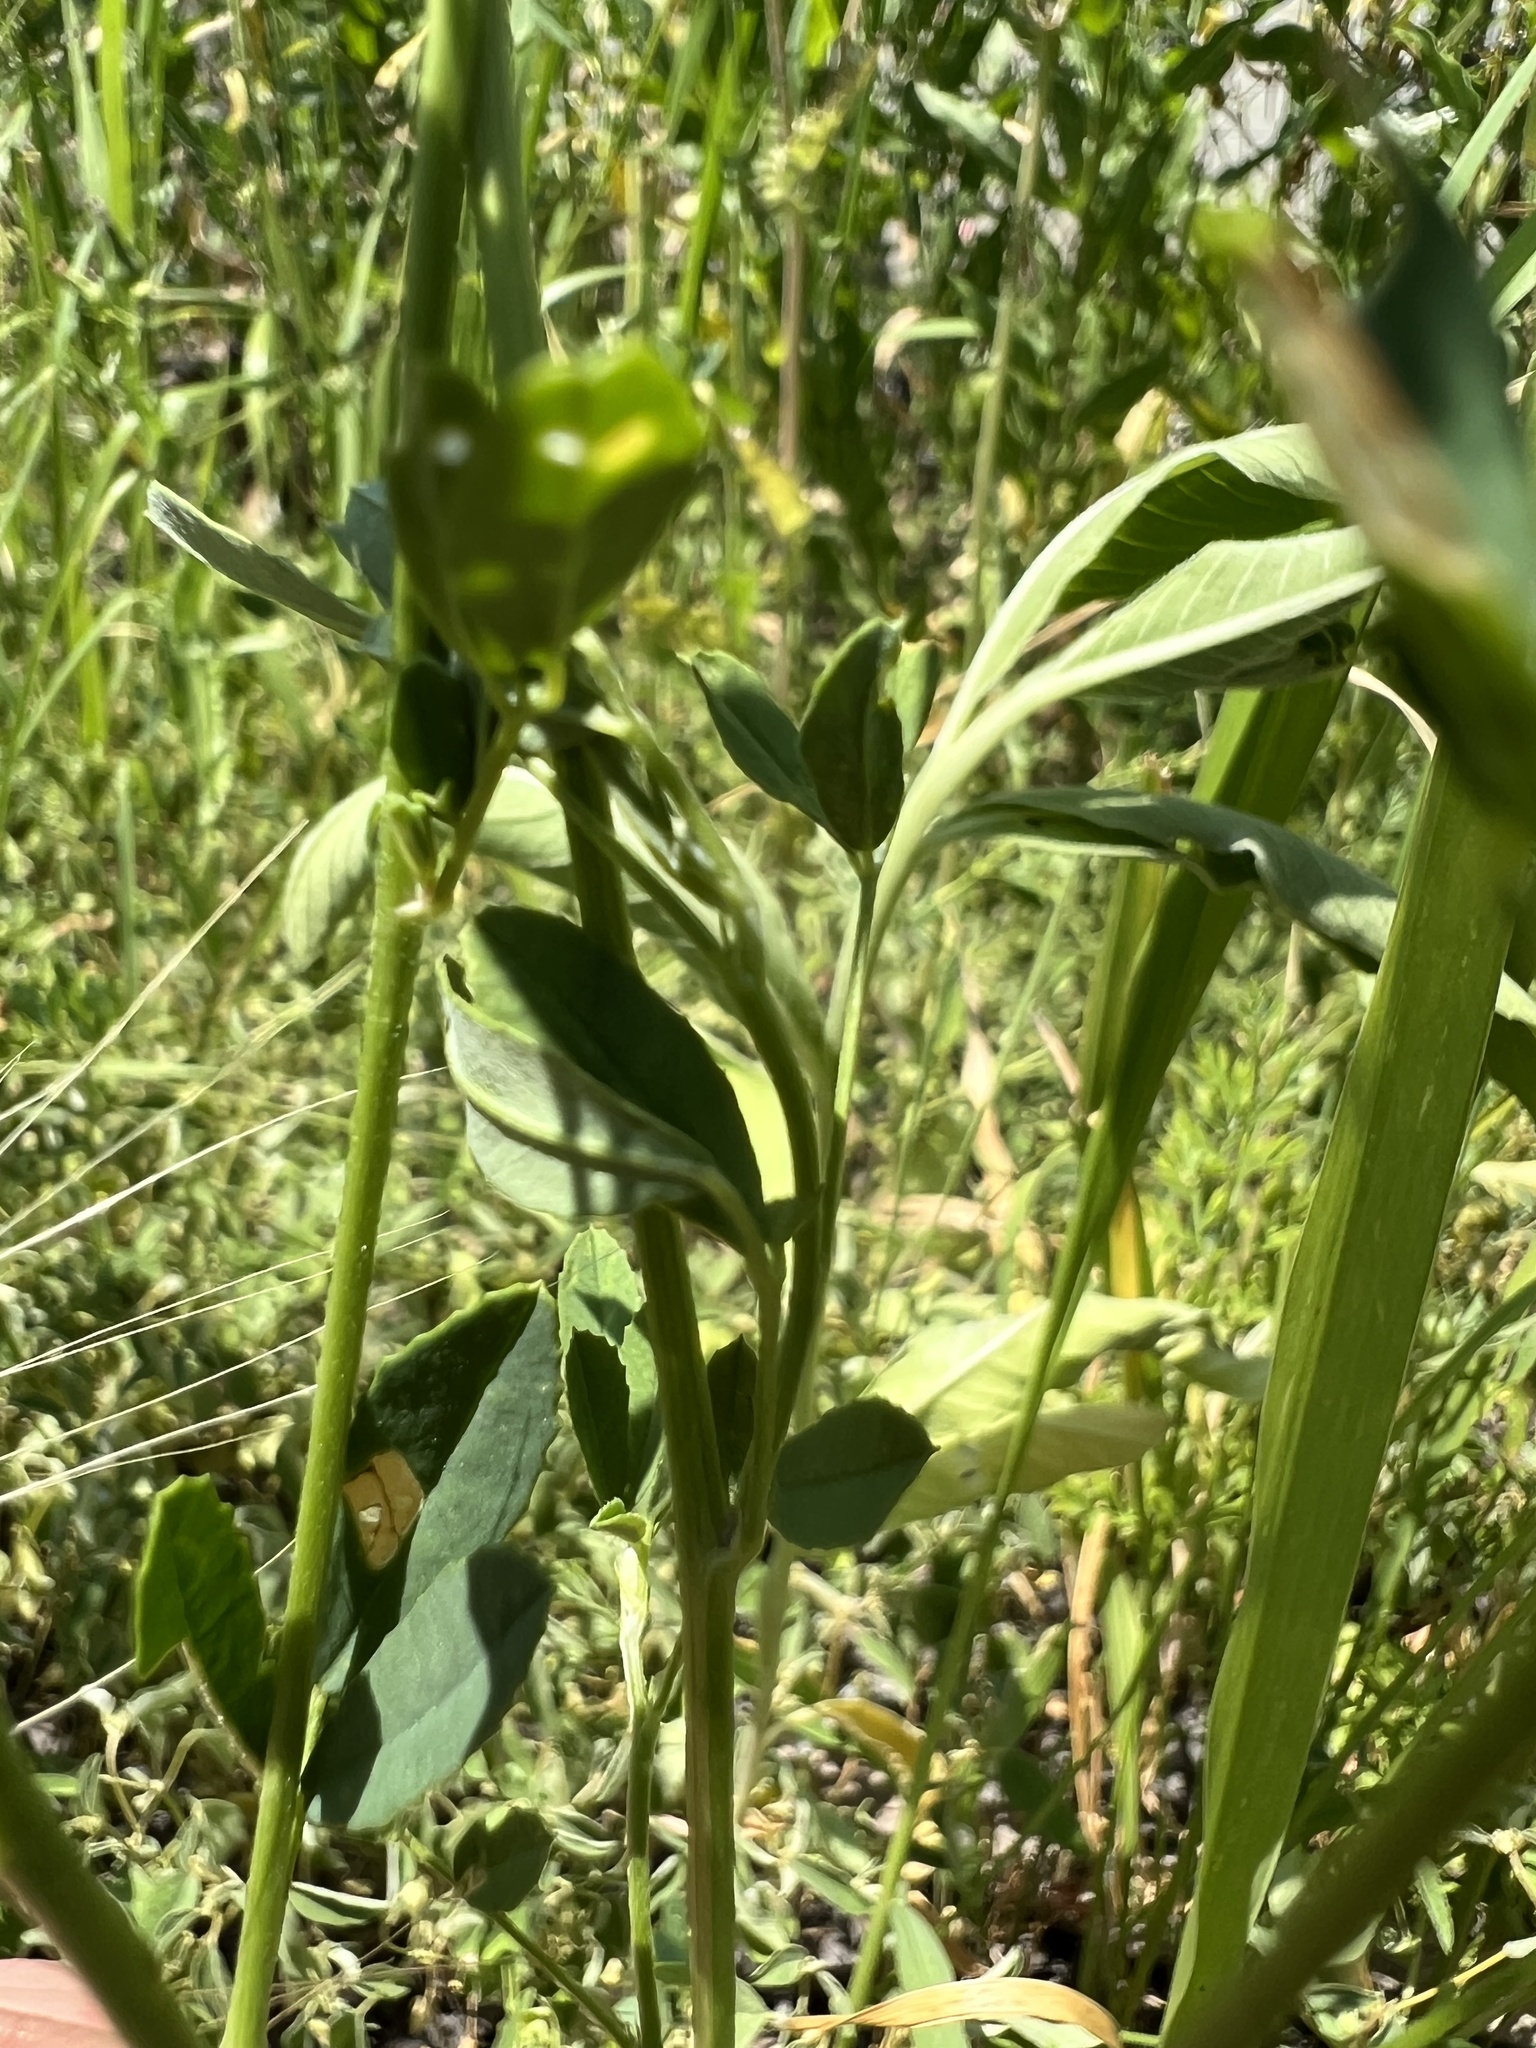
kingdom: Plantae
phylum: Tracheophyta
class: Magnoliopsida
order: Fabales
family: Fabaceae
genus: Melilotus
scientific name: Melilotus officinalis
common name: Sweetclover
